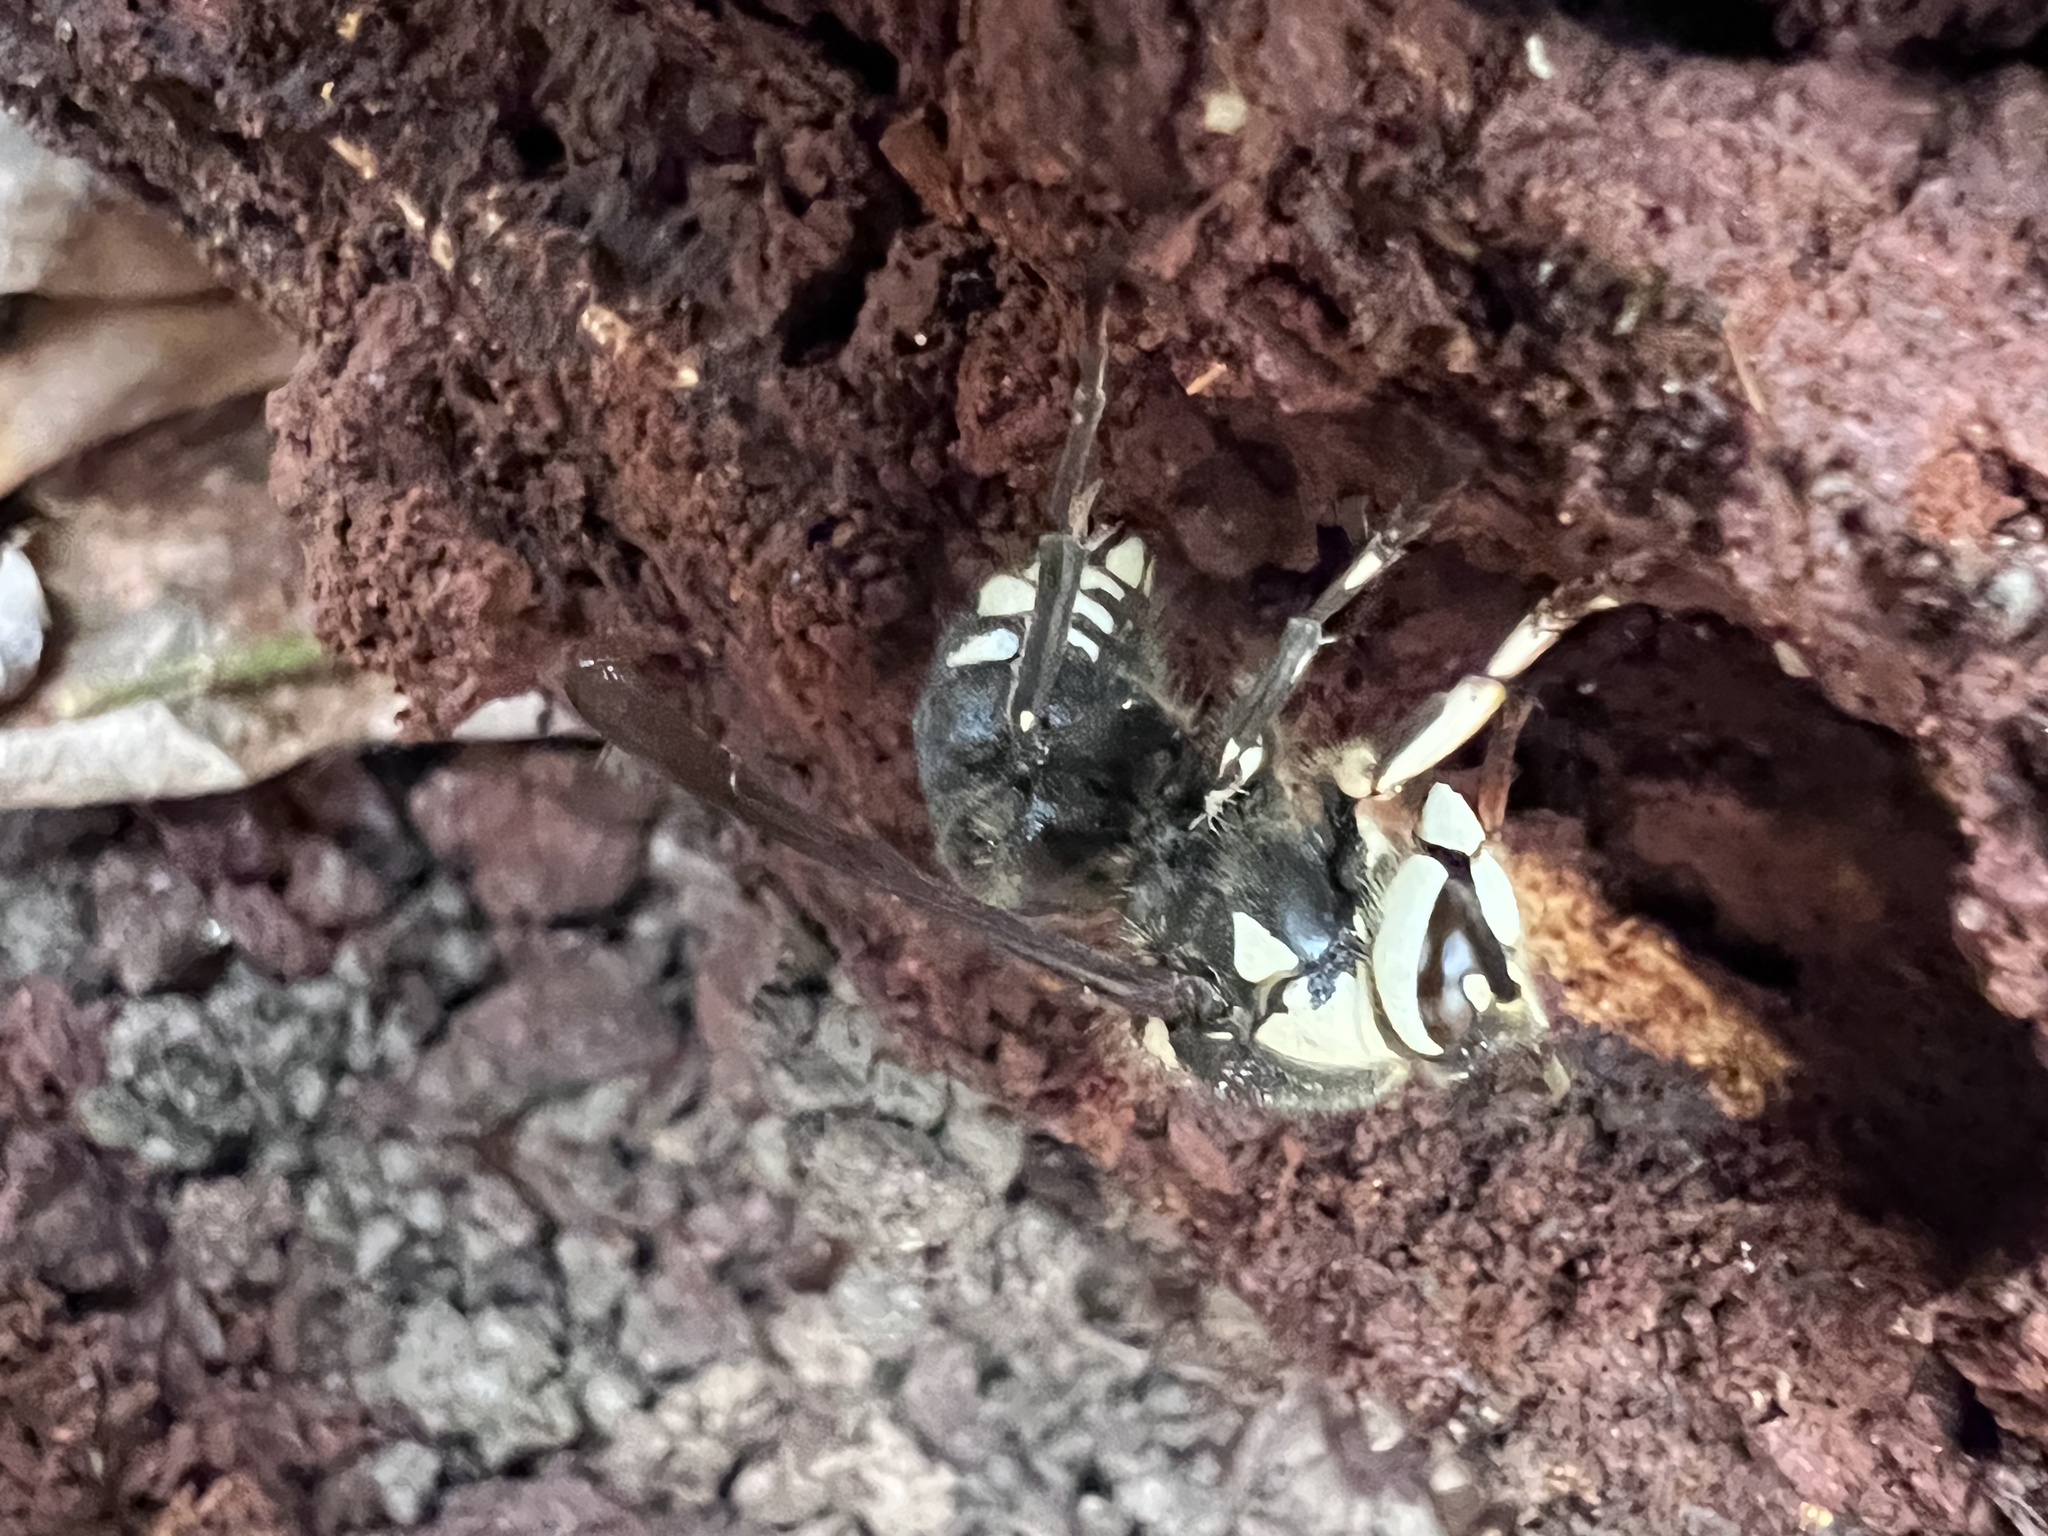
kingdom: Animalia
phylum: Arthropoda
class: Insecta
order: Hymenoptera
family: Vespidae
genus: Dolichovespula
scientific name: Dolichovespula maculata
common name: Bald-faced hornet
